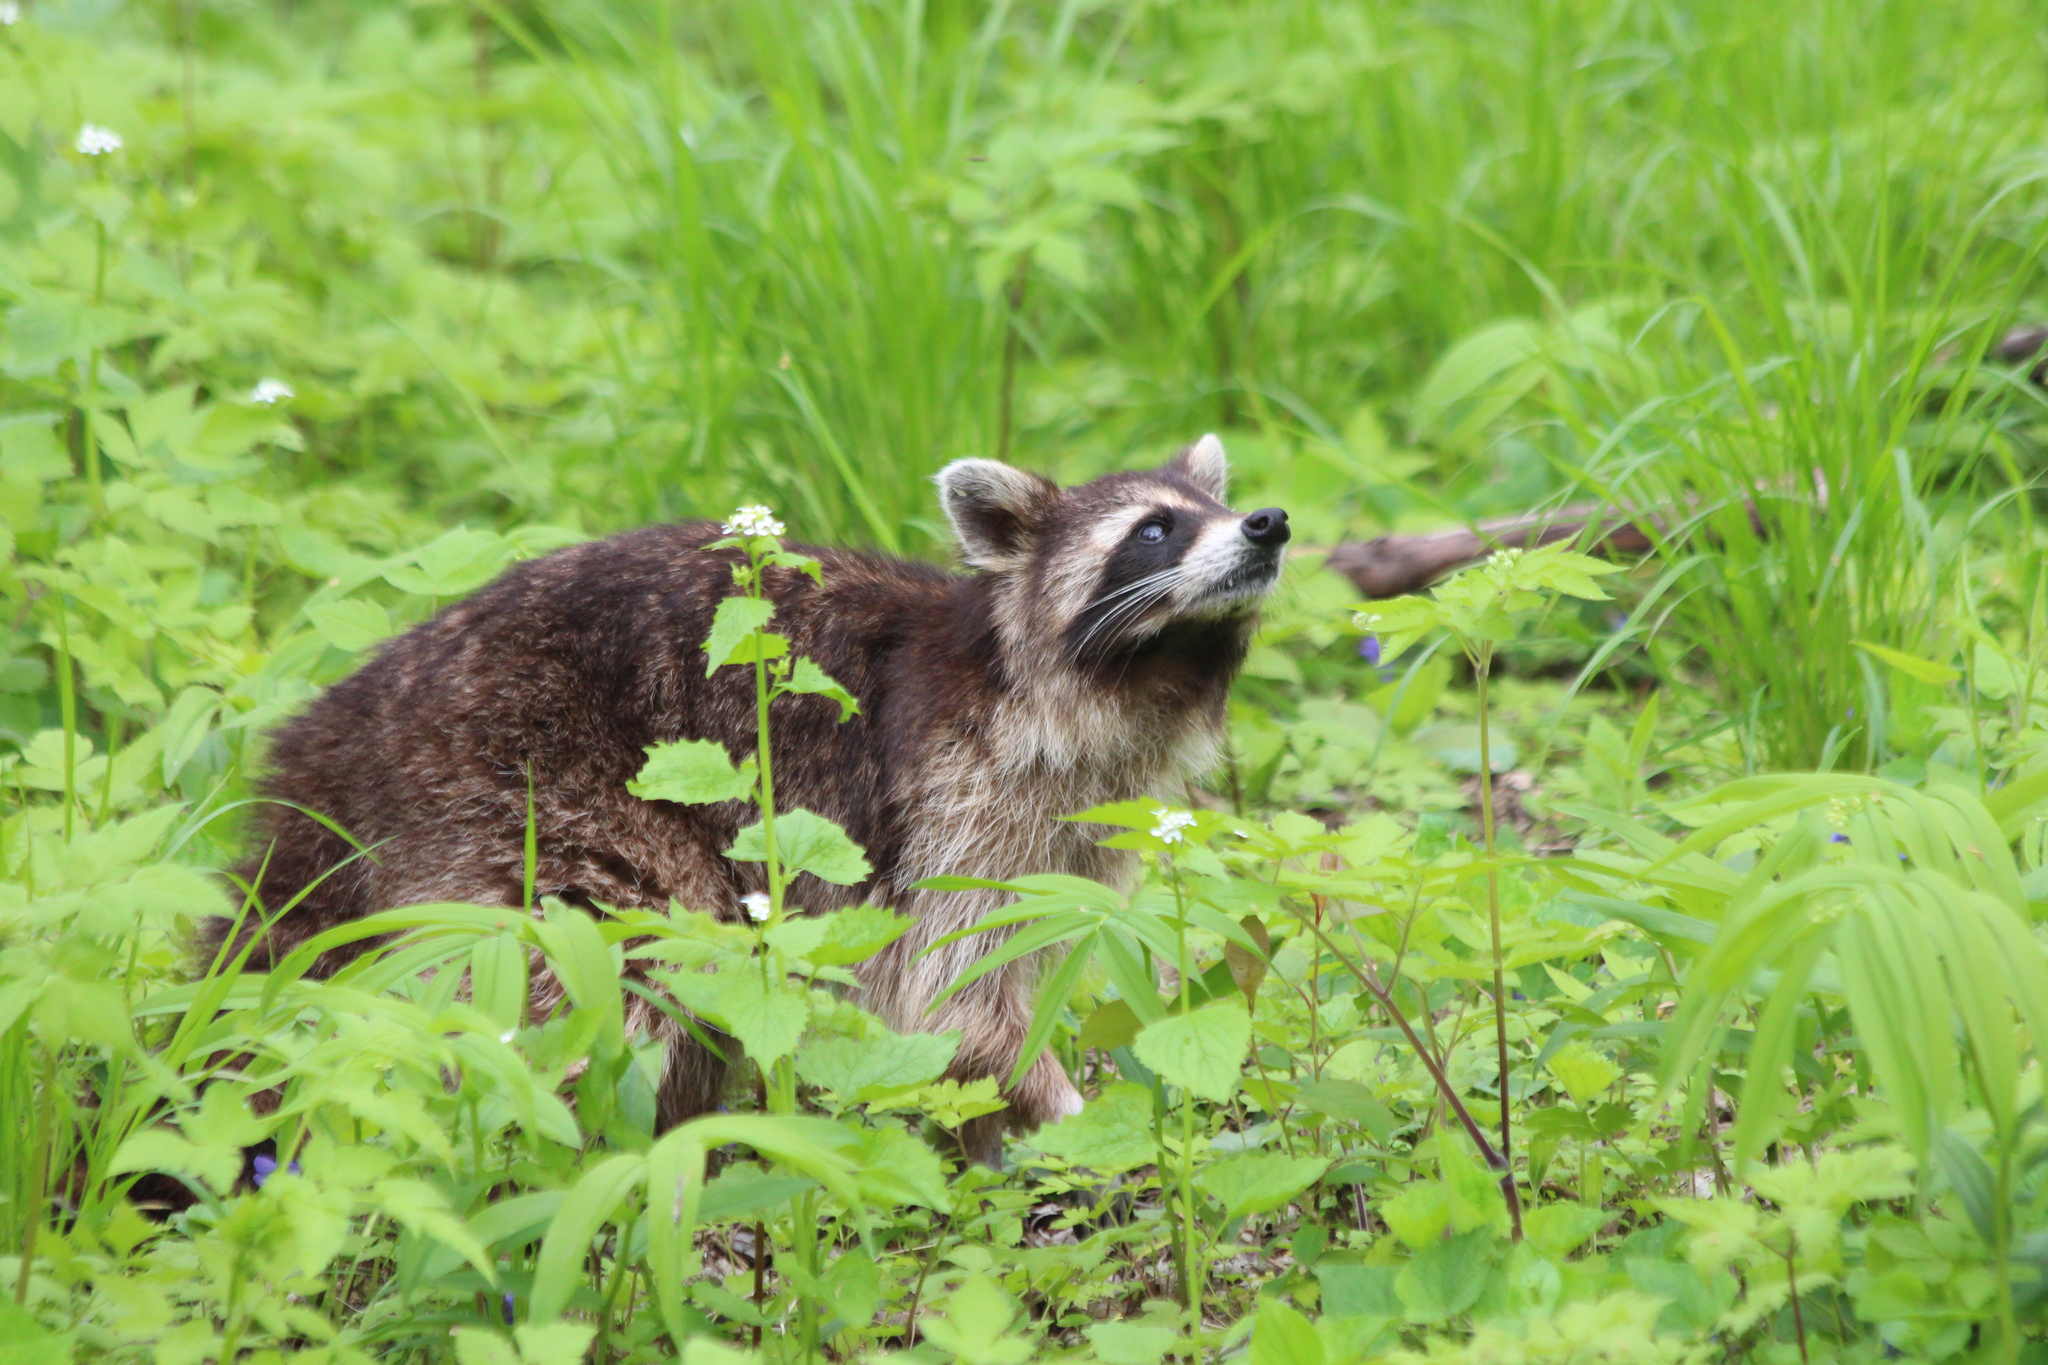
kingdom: Animalia
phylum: Chordata
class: Mammalia
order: Carnivora
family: Procyonidae
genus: Procyon
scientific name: Procyon lotor
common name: Raccoon
